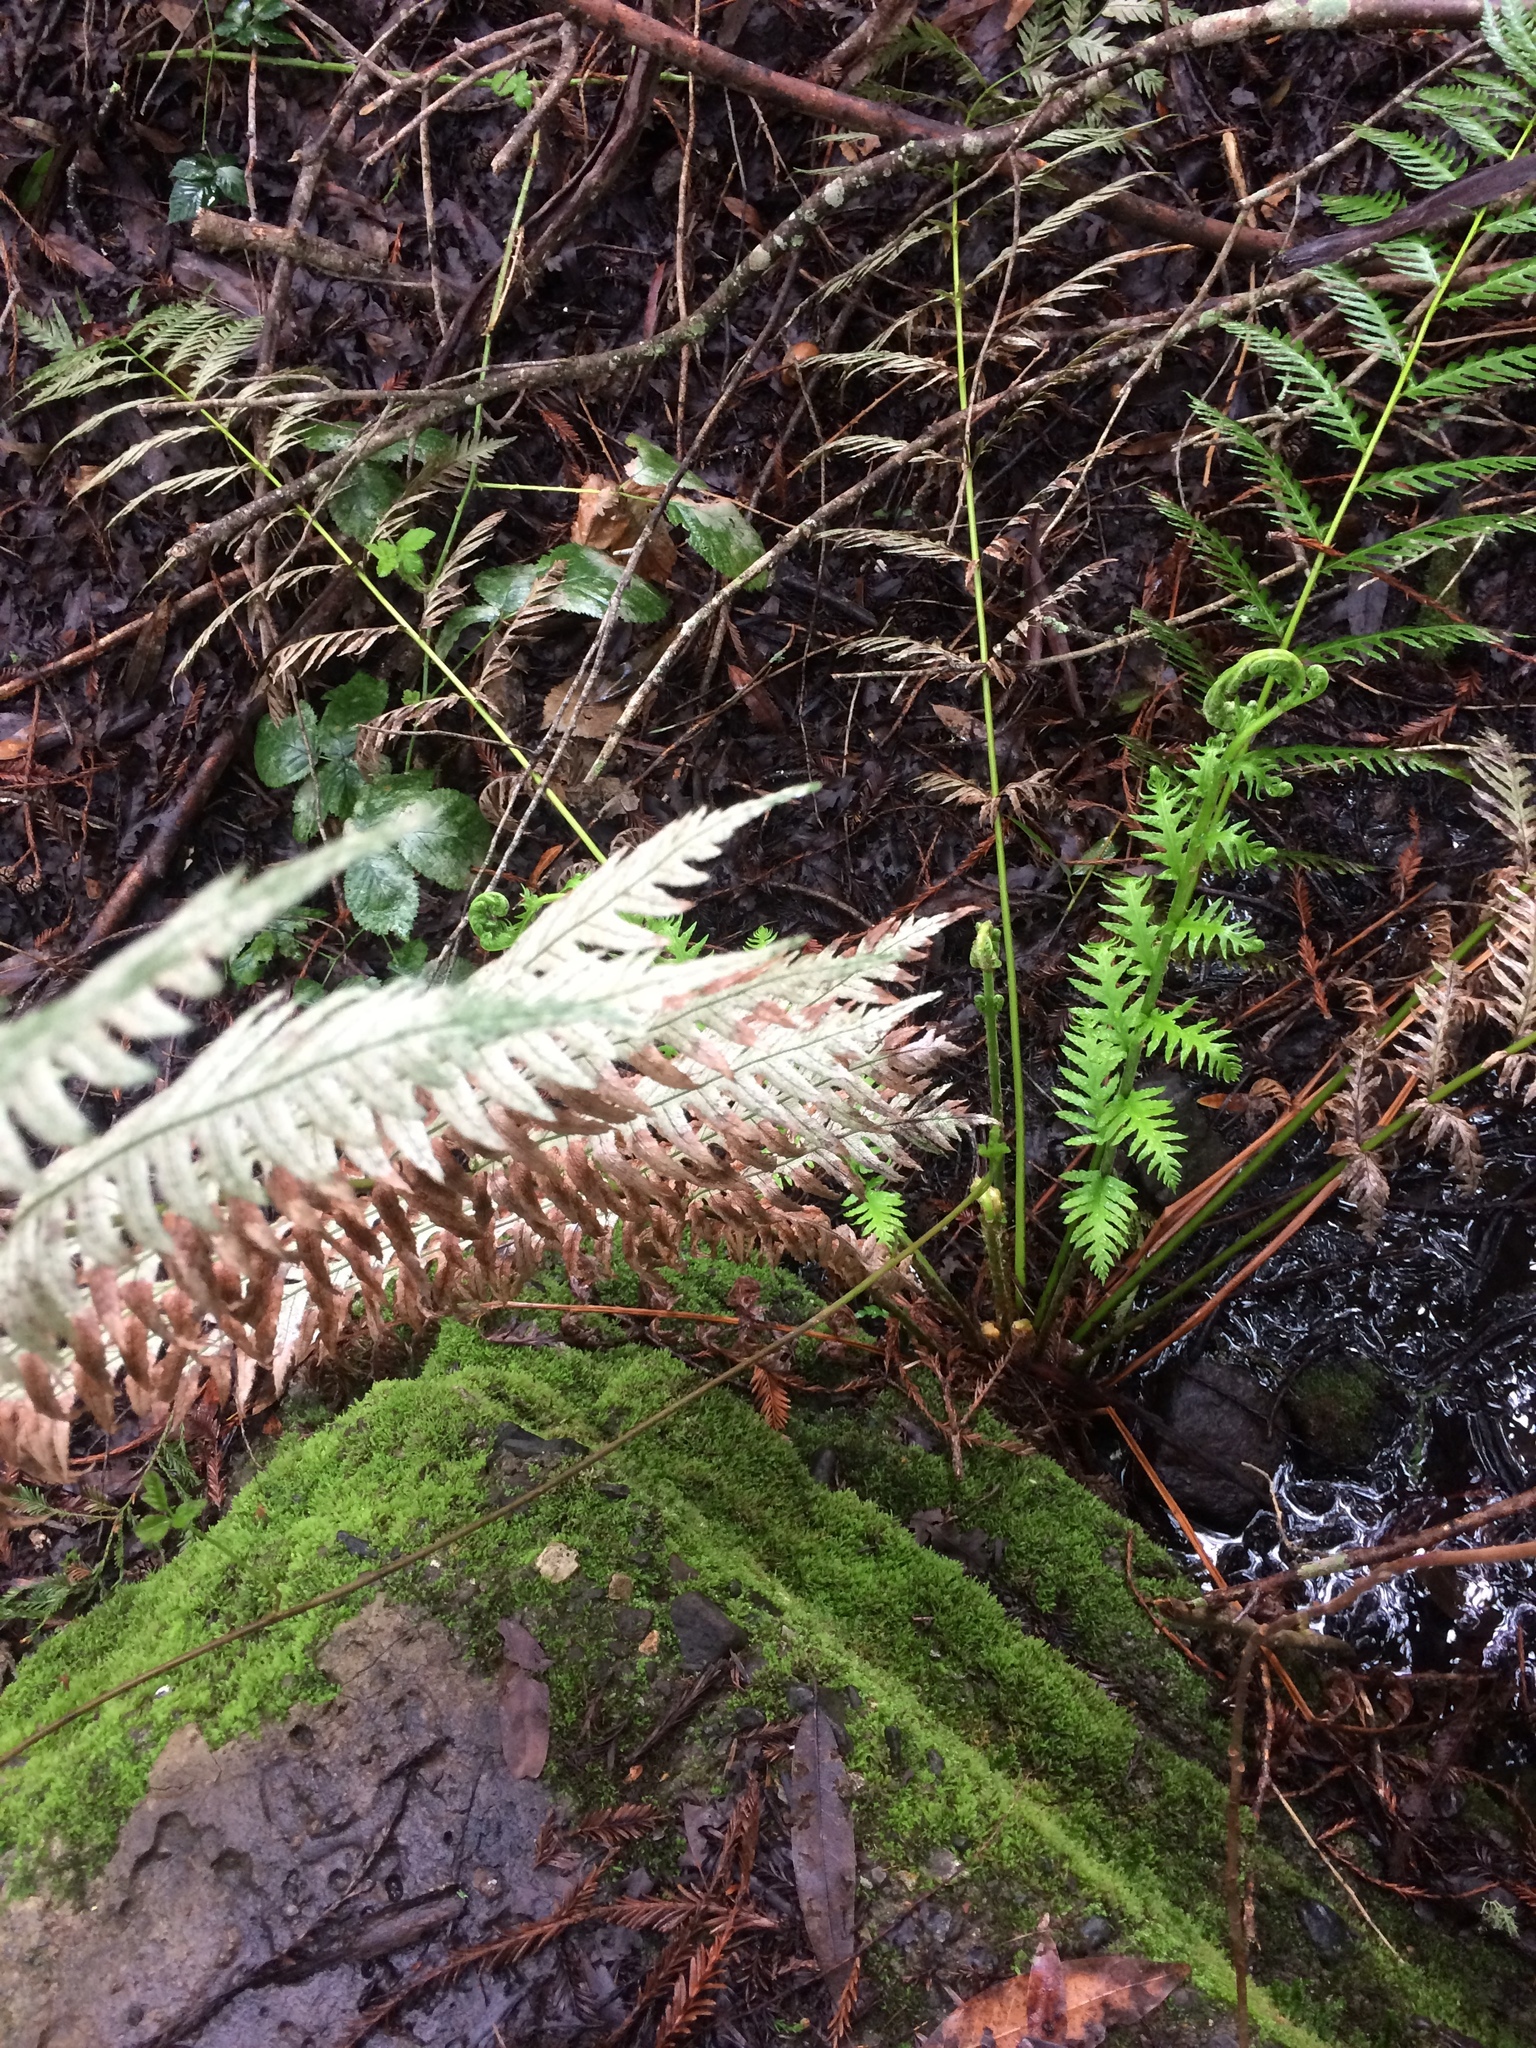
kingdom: Plantae
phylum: Tracheophyta
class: Polypodiopsida
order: Polypodiales
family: Blechnaceae
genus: Woodwardia
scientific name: Woodwardia fimbriata
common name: Giant chain fern
